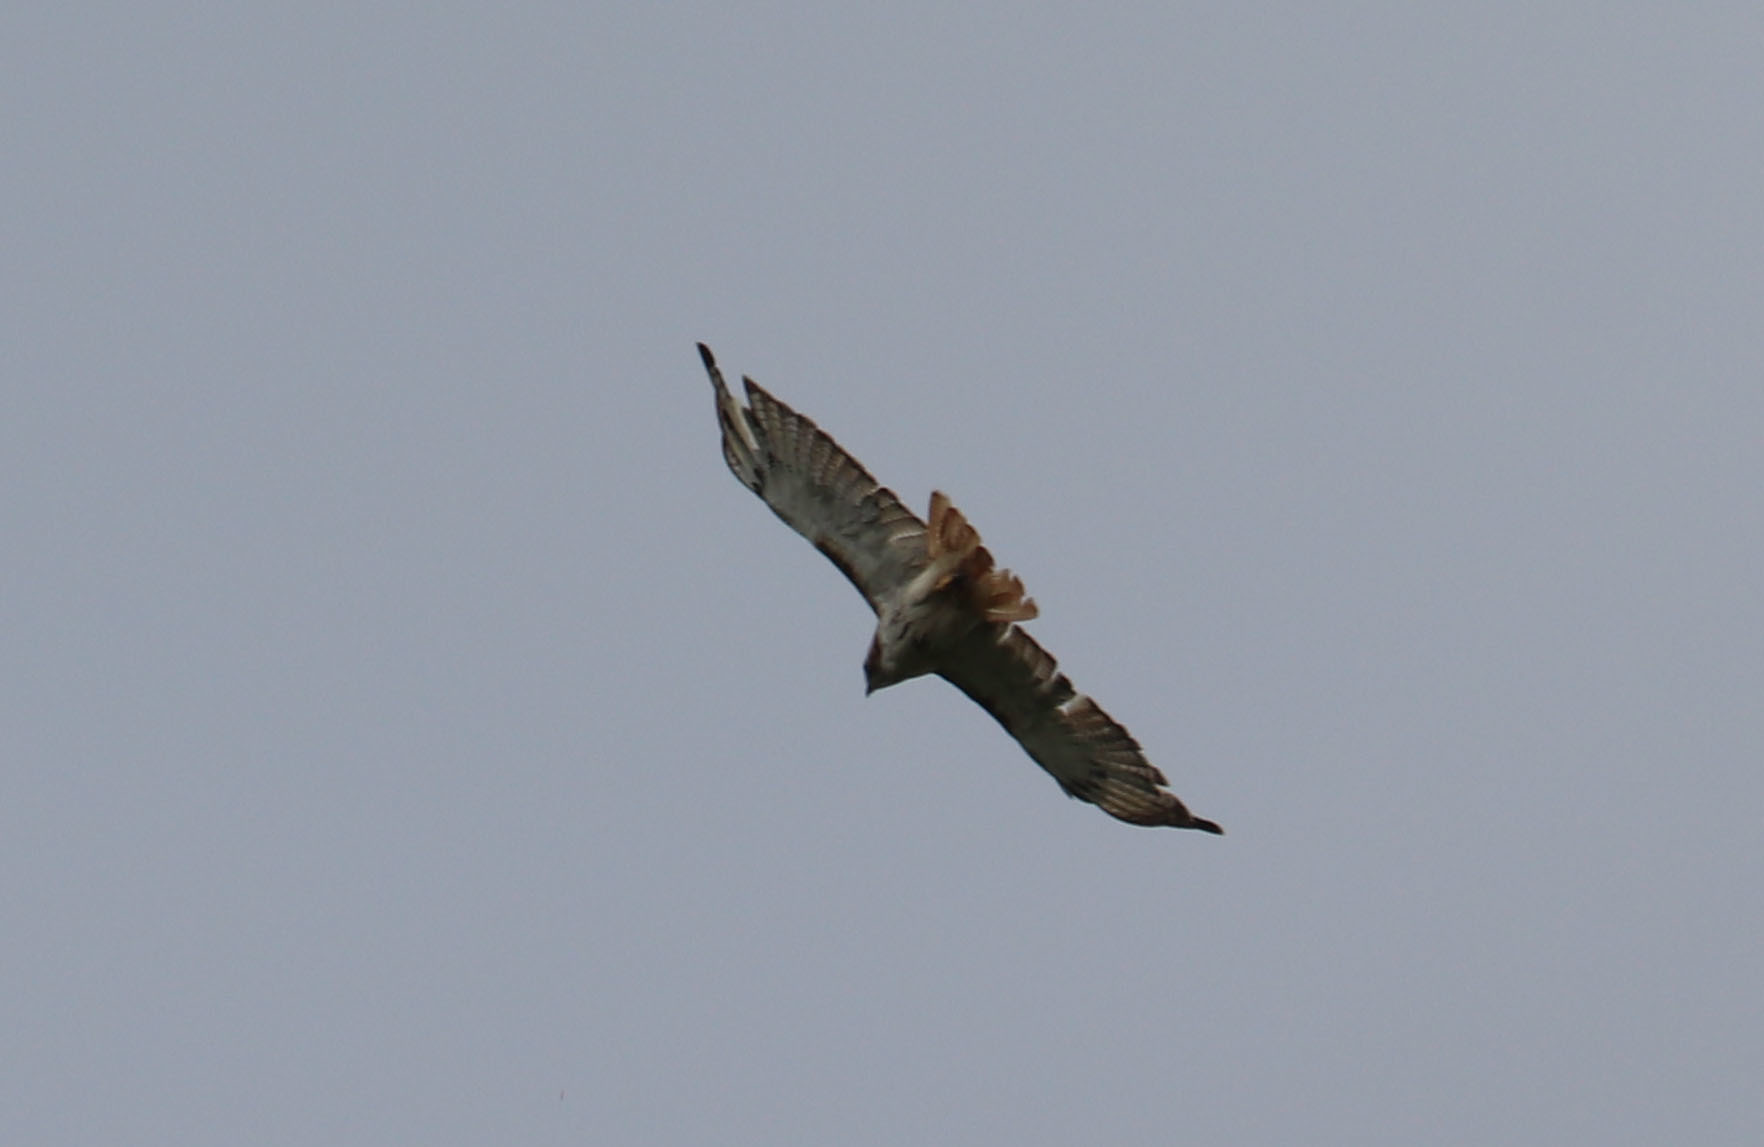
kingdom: Animalia
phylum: Chordata
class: Aves
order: Accipitriformes
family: Accipitridae
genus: Buteo
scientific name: Buteo jamaicensis
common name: Red-tailed hawk
